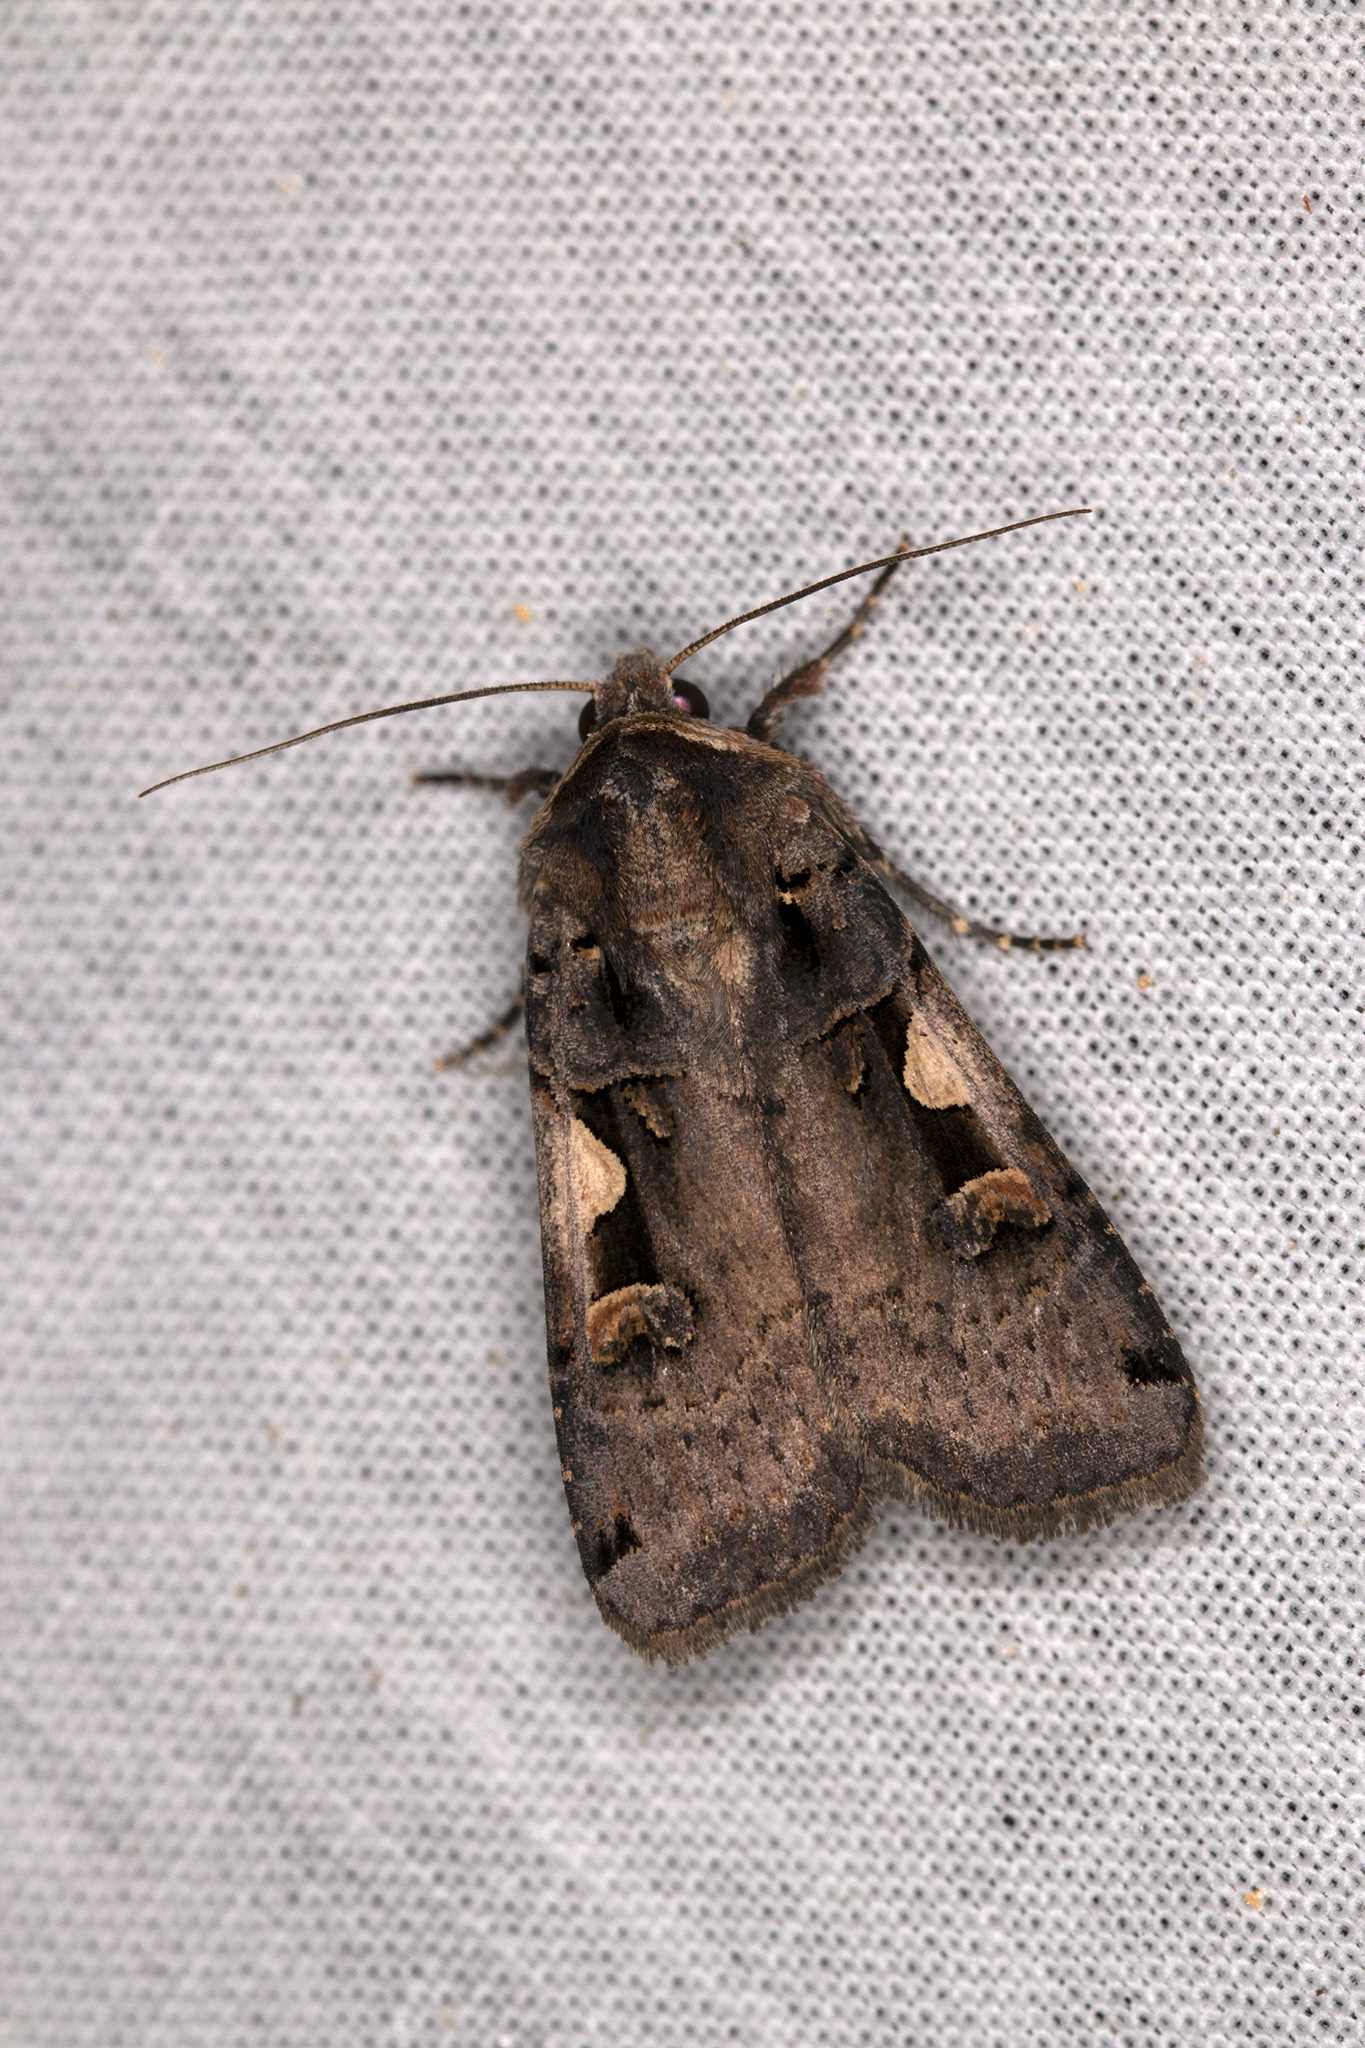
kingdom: Animalia
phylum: Arthropoda
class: Insecta
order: Lepidoptera
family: Noctuidae
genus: Xestia
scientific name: Xestia c-nigrum
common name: Setaceous hebrew character
